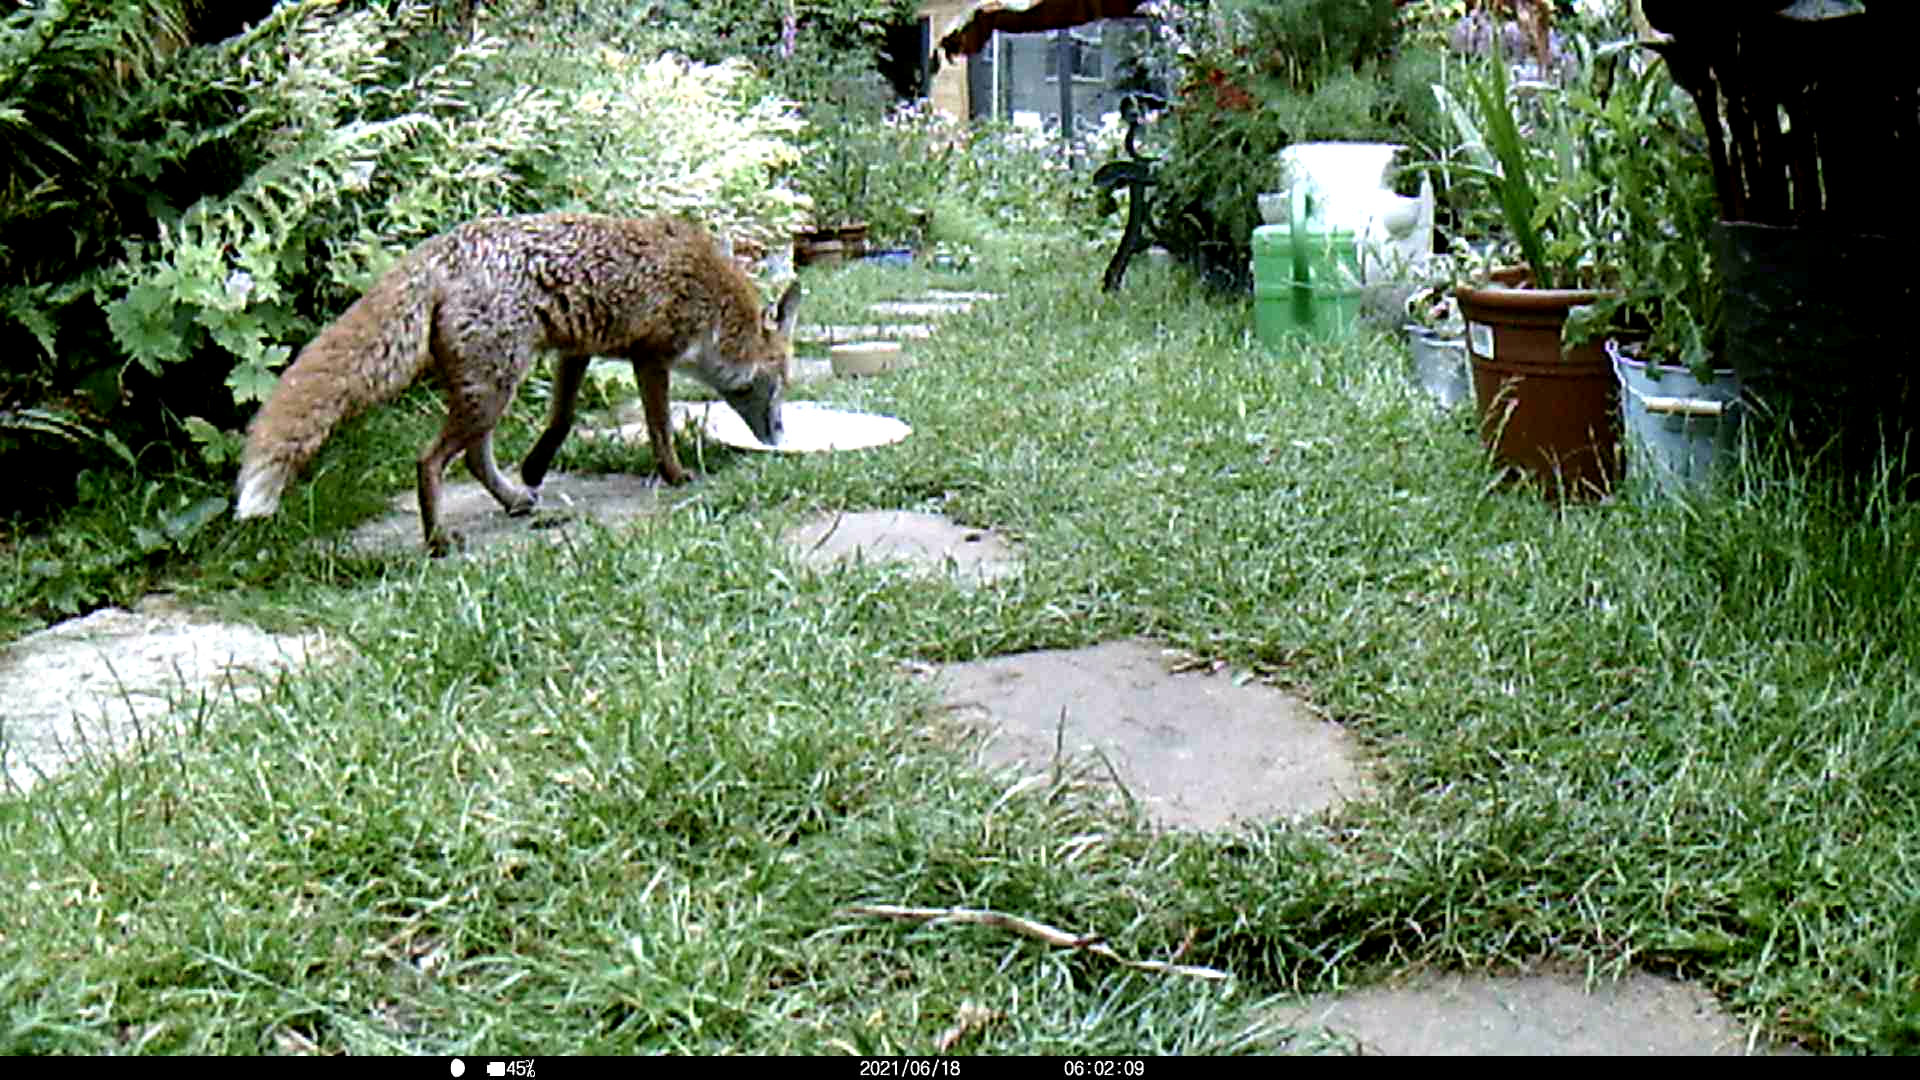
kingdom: Animalia
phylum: Chordata
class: Mammalia
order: Carnivora
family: Canidae
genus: Vulpes
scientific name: Vulpes vulpes
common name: Red fox
